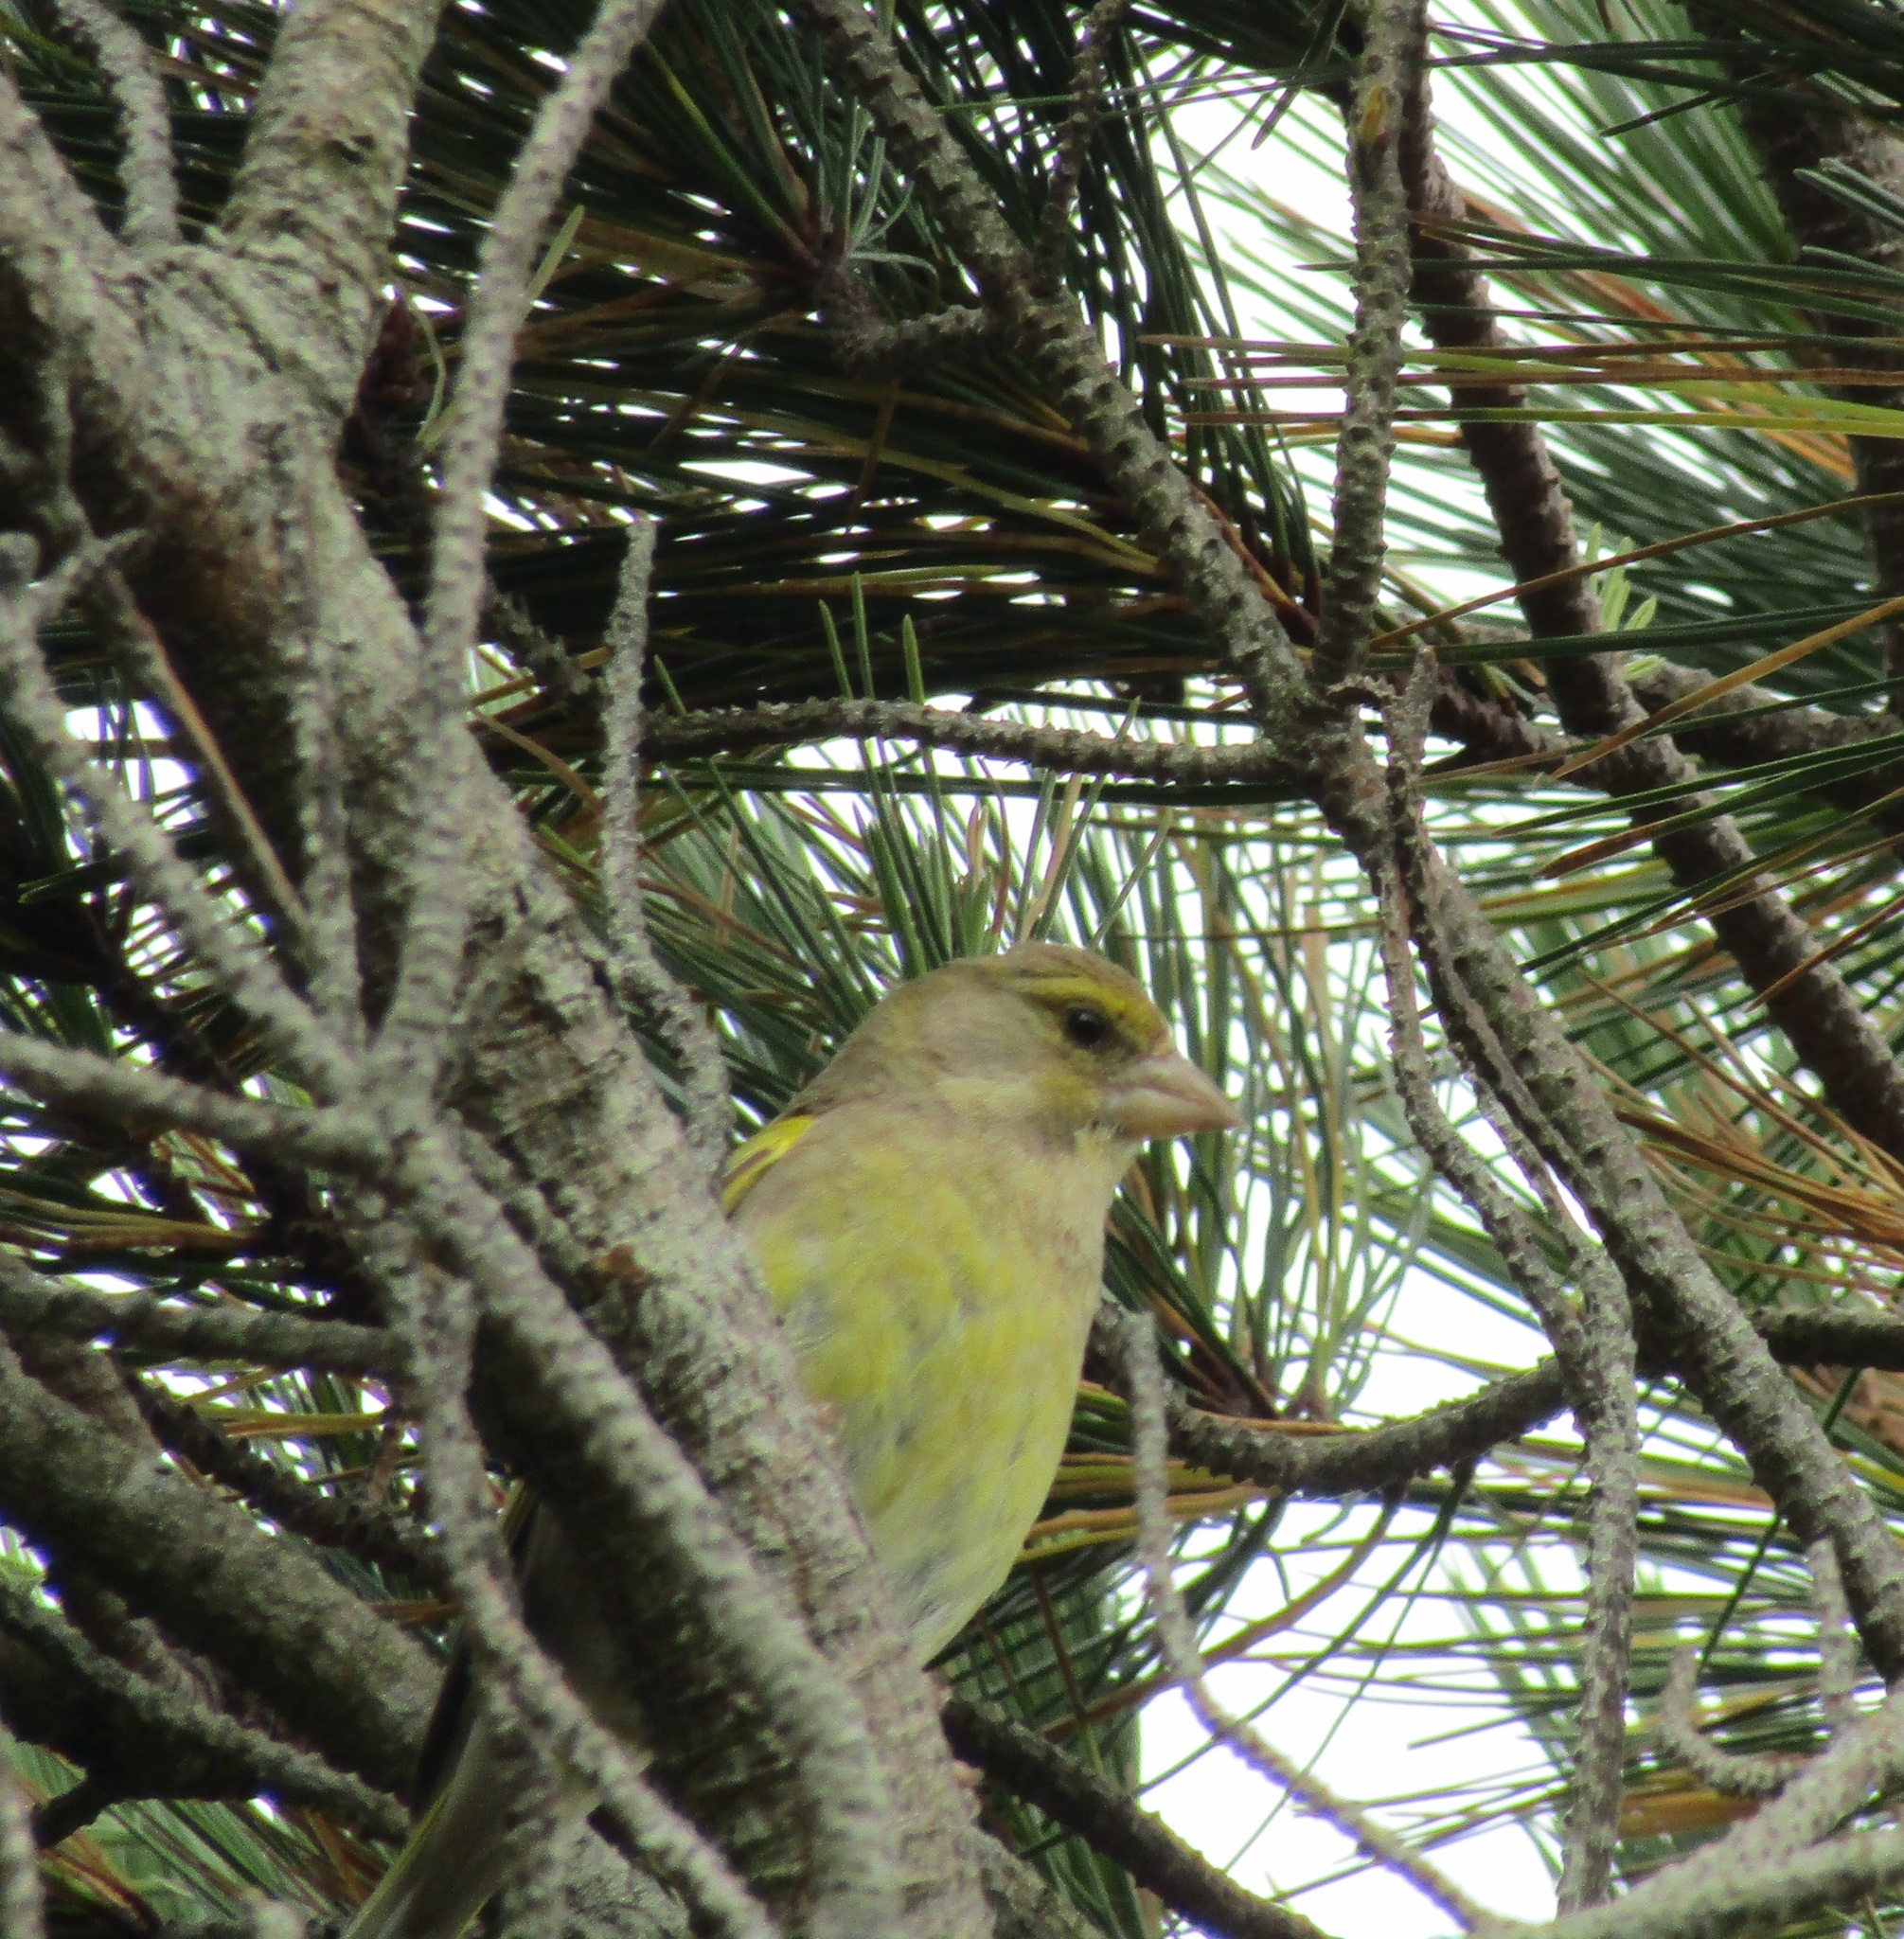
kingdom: Plantae
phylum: Tracheophyta
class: Liliopsida
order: Poales
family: Poaceae
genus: Chloris
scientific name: Chloris chloris
